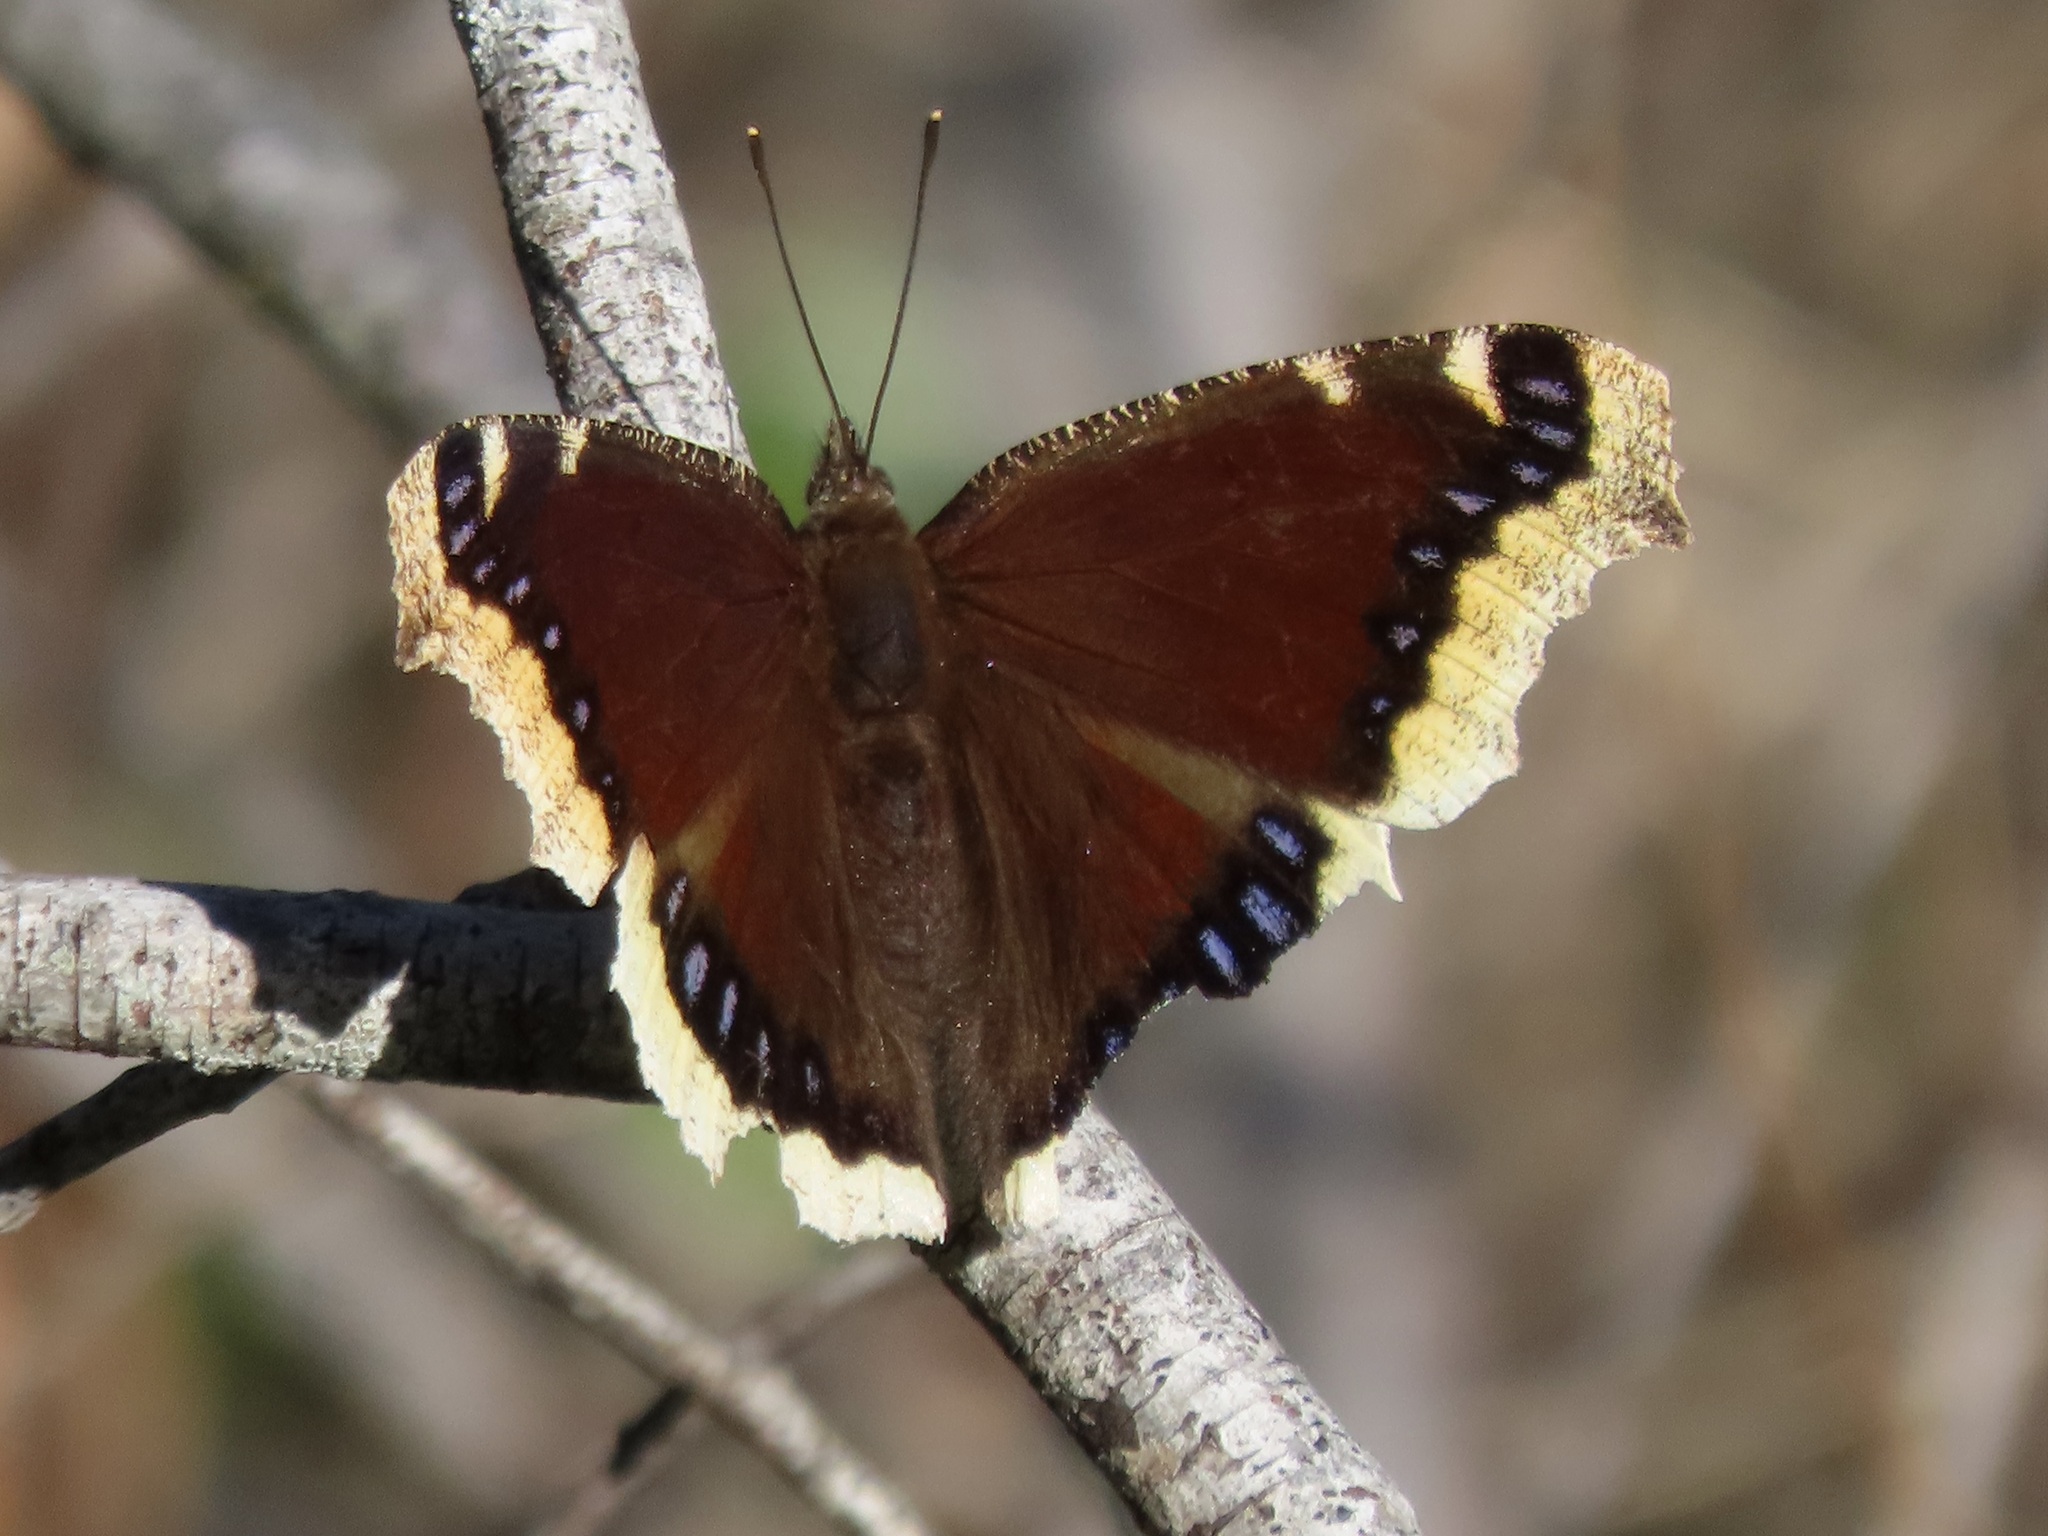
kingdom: Animalia
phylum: Arthropoda
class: Insecta
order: Lepidoptera
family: Nymphalidae
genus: Nymphalis
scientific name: Nymphalis antiopa
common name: Camberwell beauty
